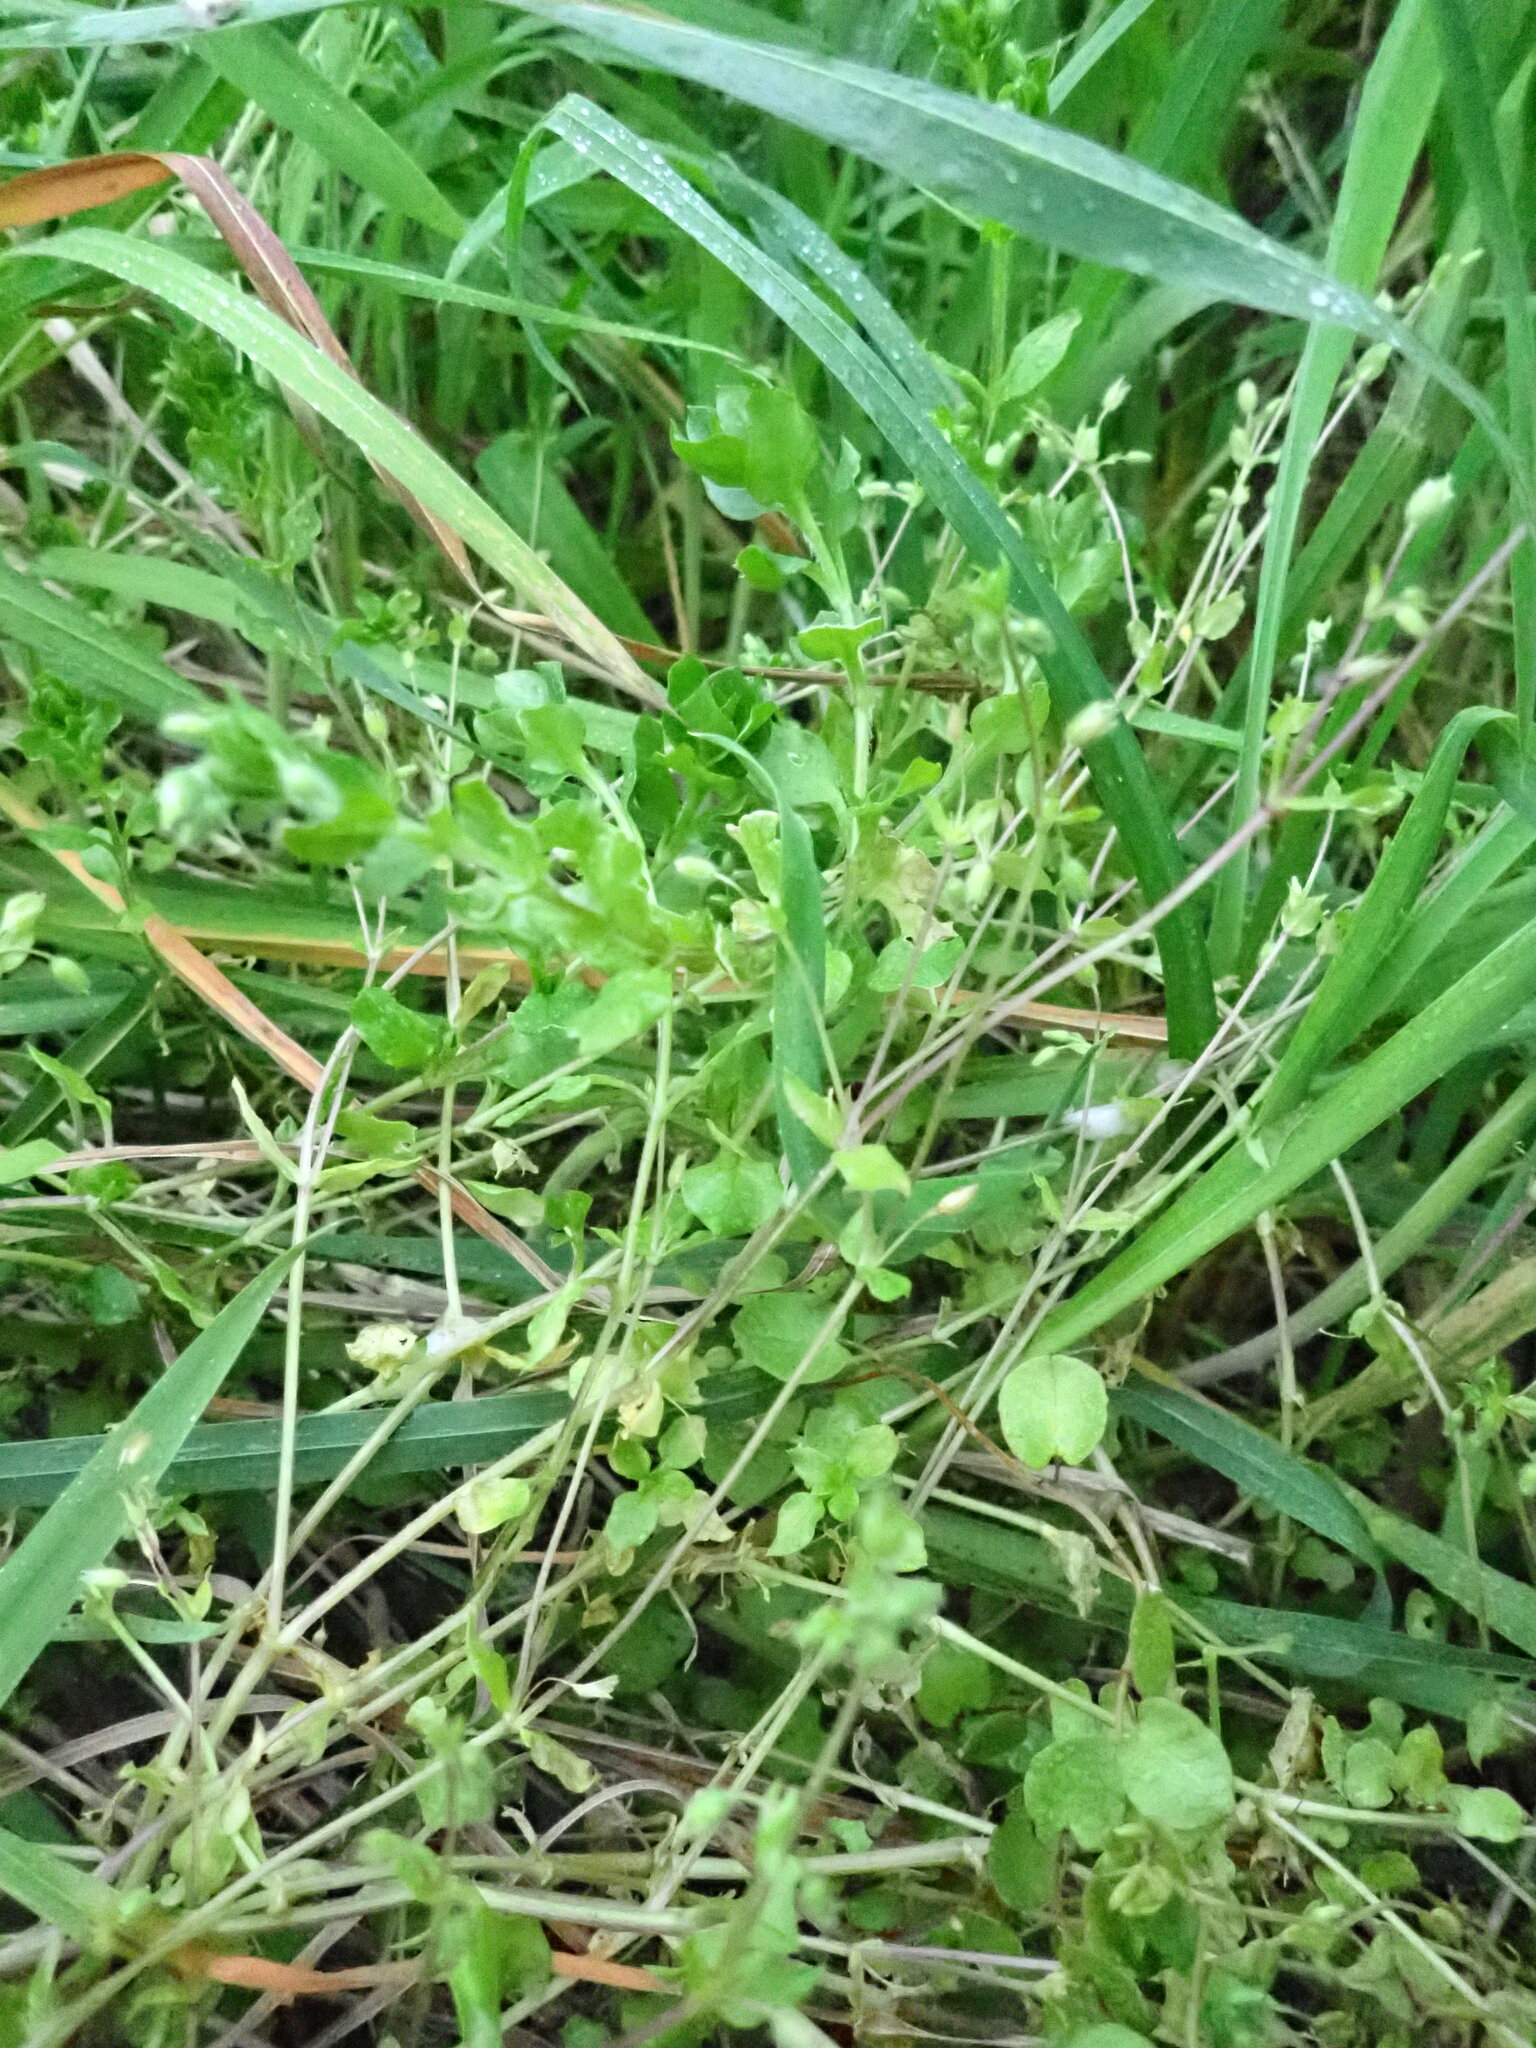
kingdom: Plantae
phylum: Tracheophyta
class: Magnoliopsida
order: Caryophyllales
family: Caryophyllaceae
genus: Stellaria
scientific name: Stellaria media
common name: Common chickweed
